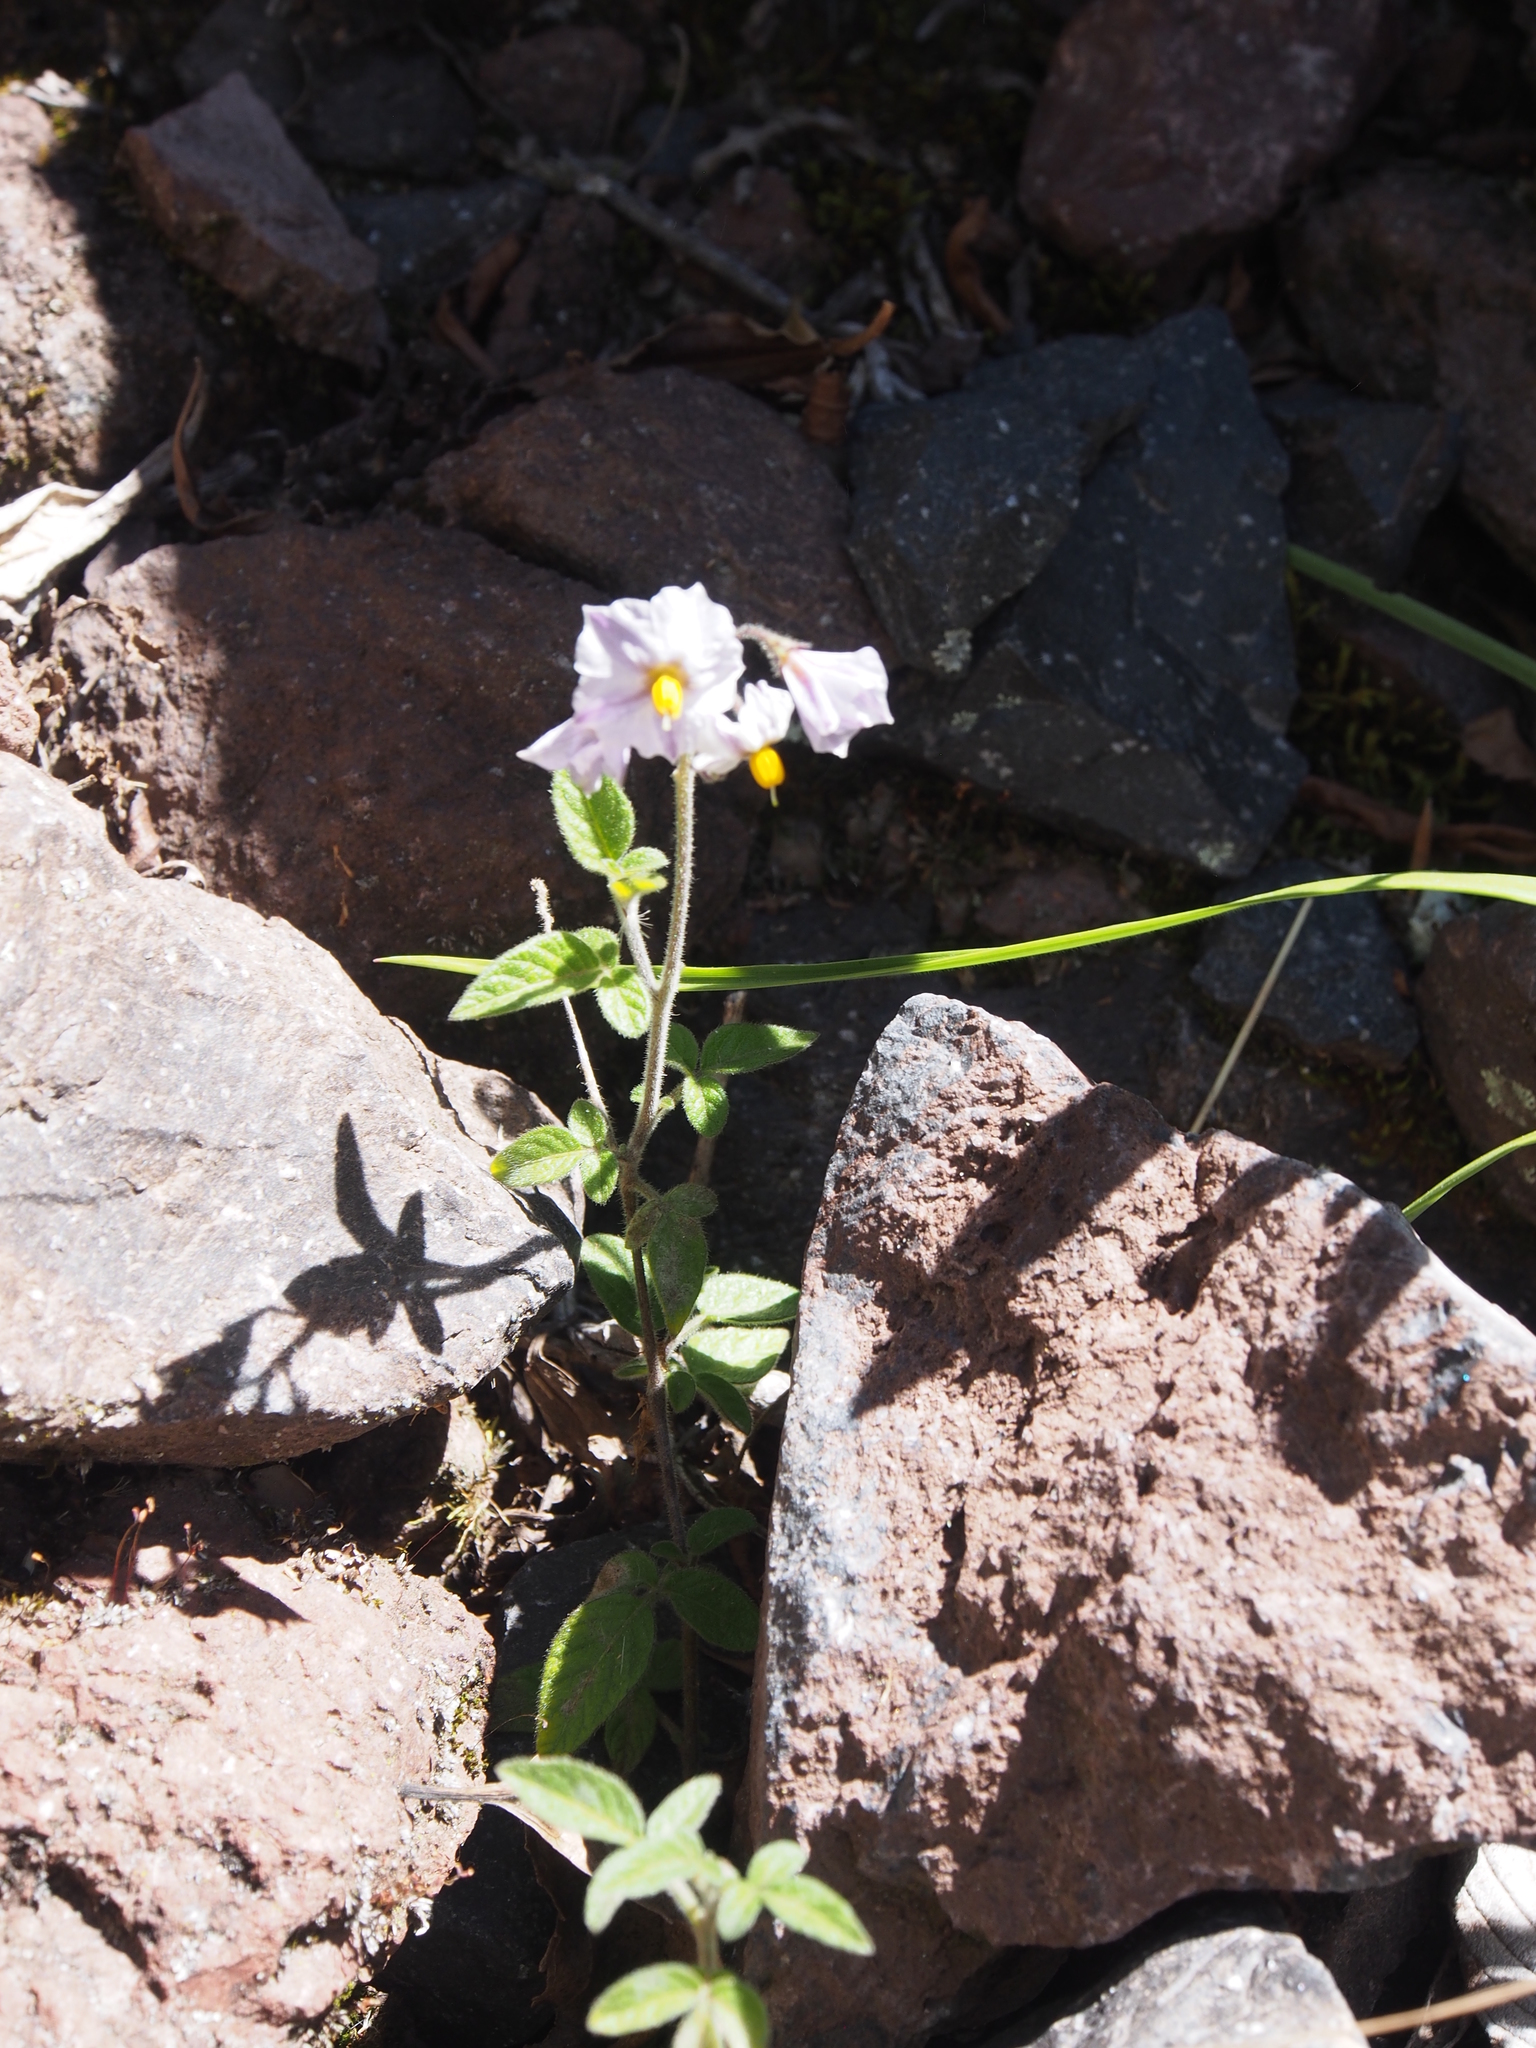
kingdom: Plantae
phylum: Tracheophyta
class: Magnoliopsida
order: Solanales
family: Solanaceae
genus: Solanum
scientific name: Solanum caripense
